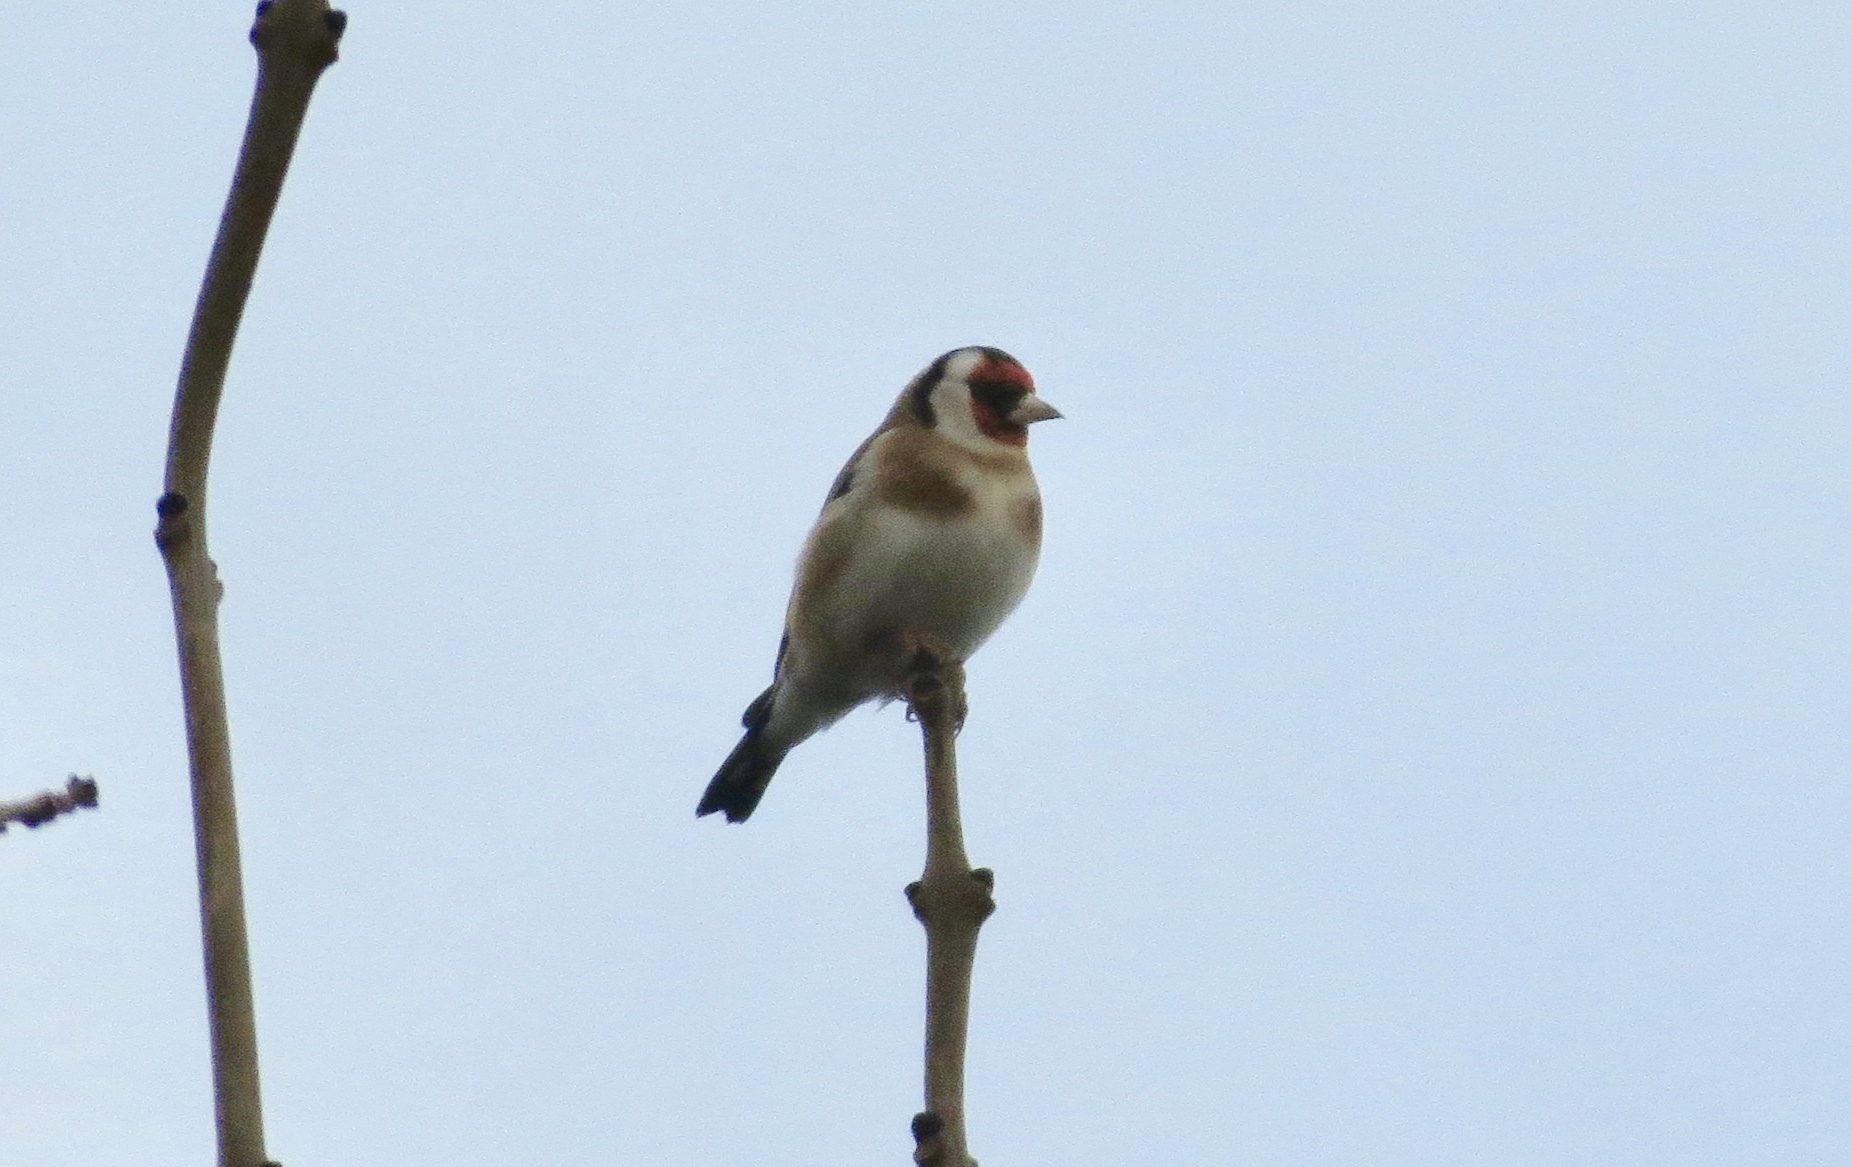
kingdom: Animalia
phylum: Chordata
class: Aves
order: Passeriformes
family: Fringillidae
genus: Carduelis
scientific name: Carduelis carduelis
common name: European goldfinch
